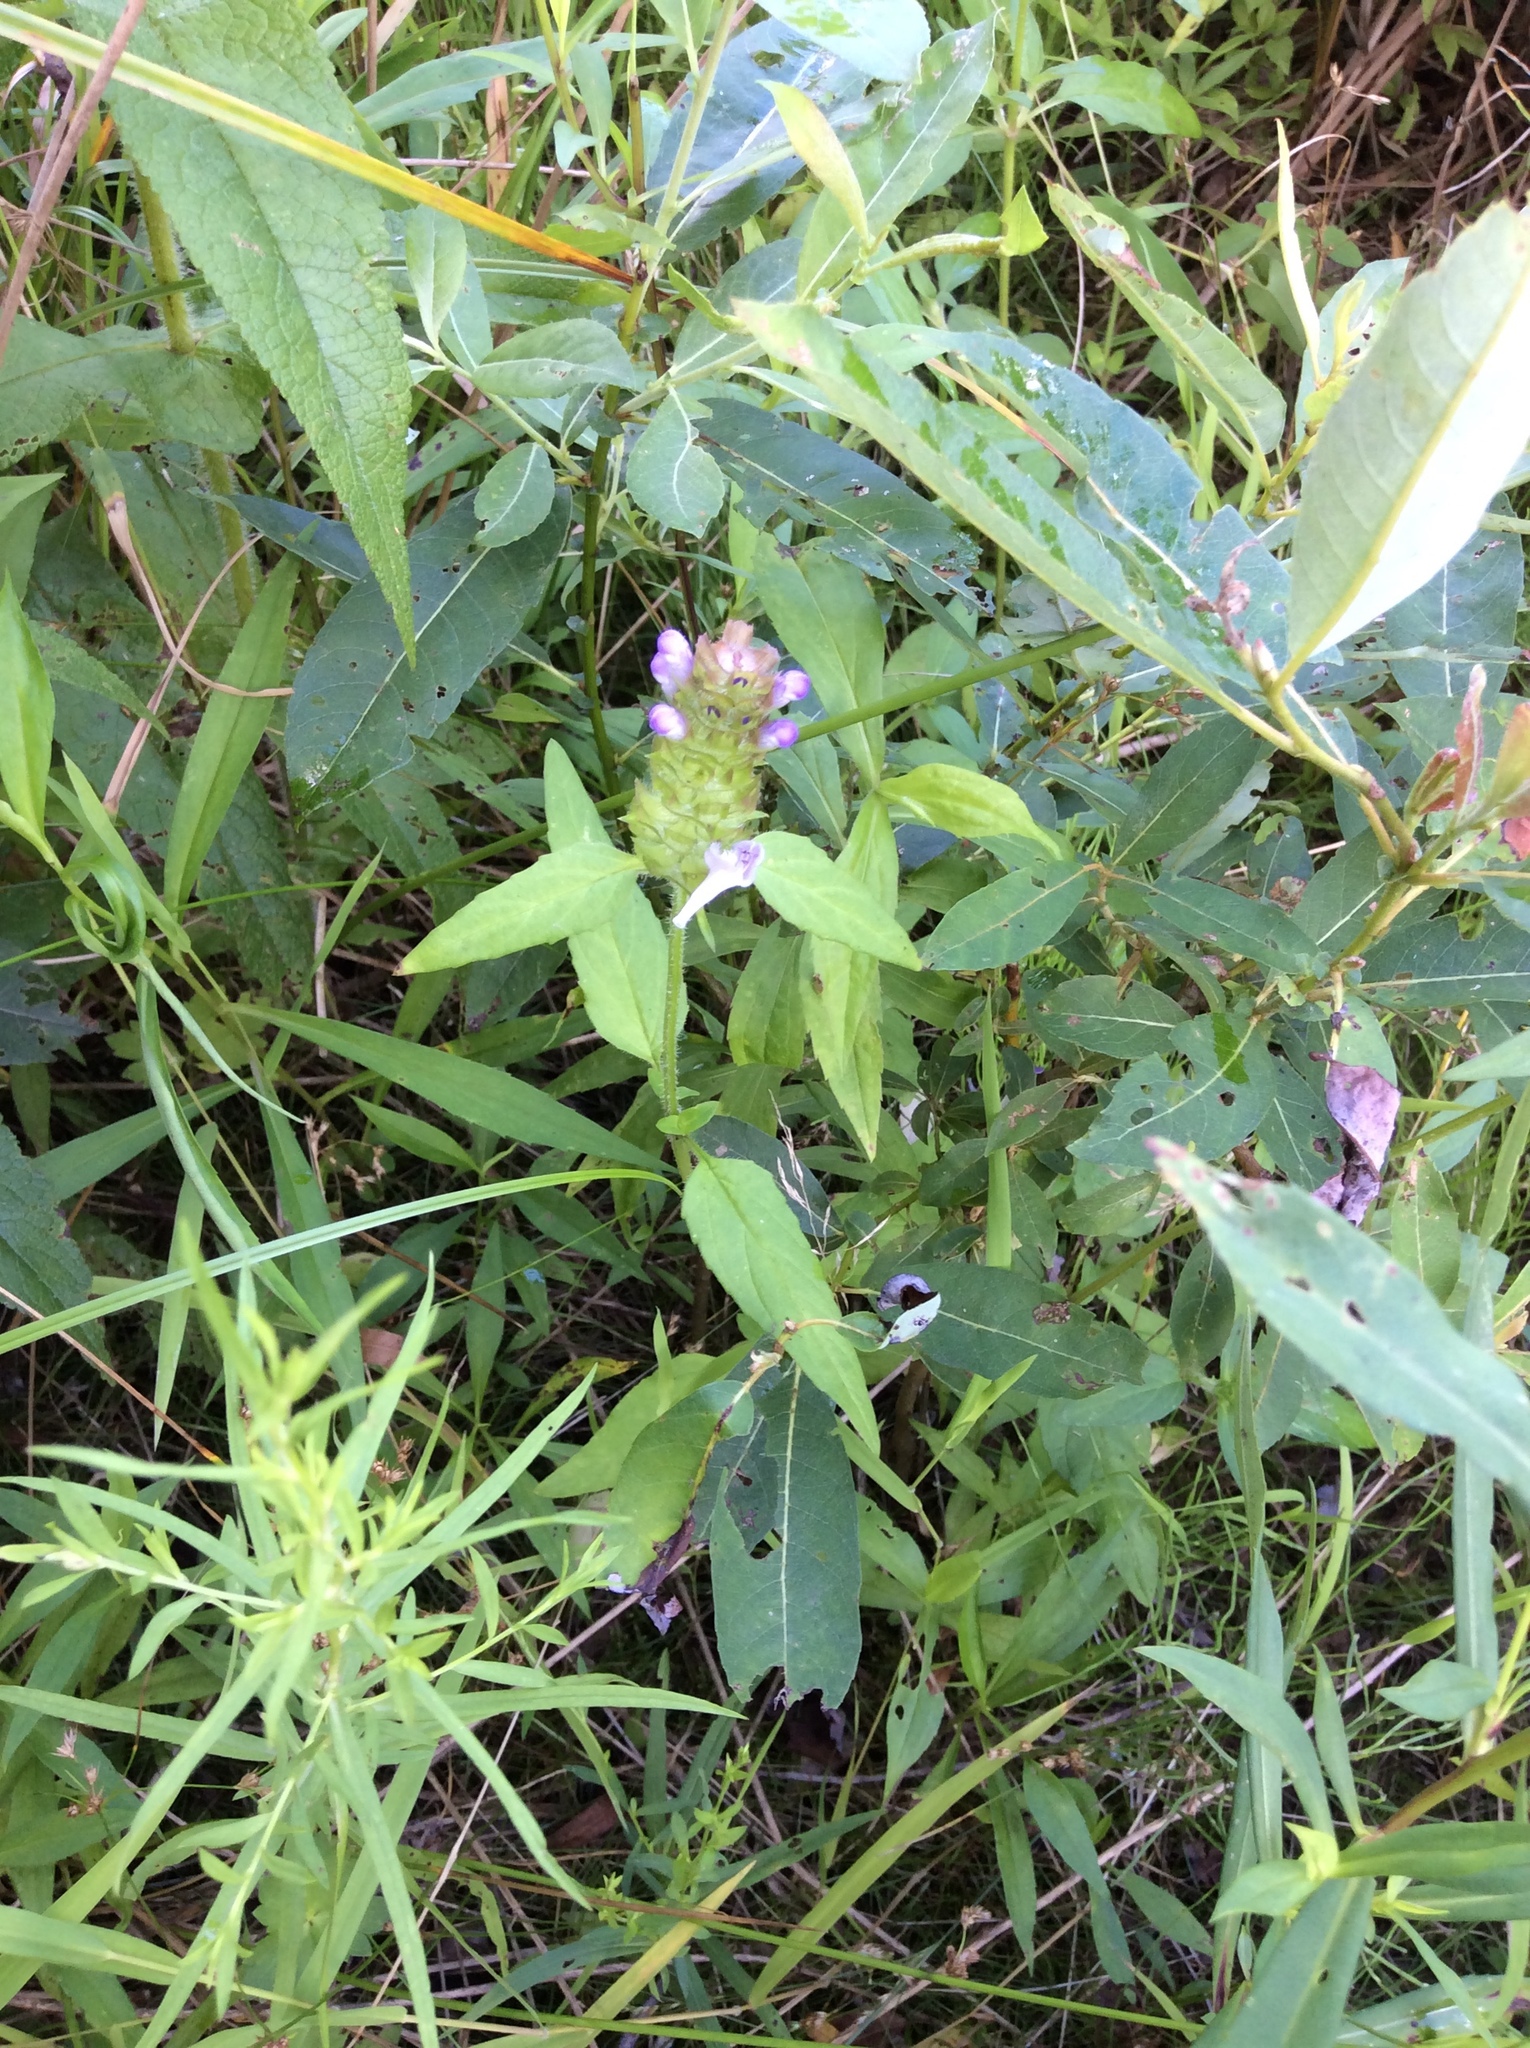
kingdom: Plantae
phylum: Tracheophyta
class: Magnoliopsida
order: Lamiales
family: Lamiaceae
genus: Prunella
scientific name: Prunella vulgaris
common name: Heal-all
